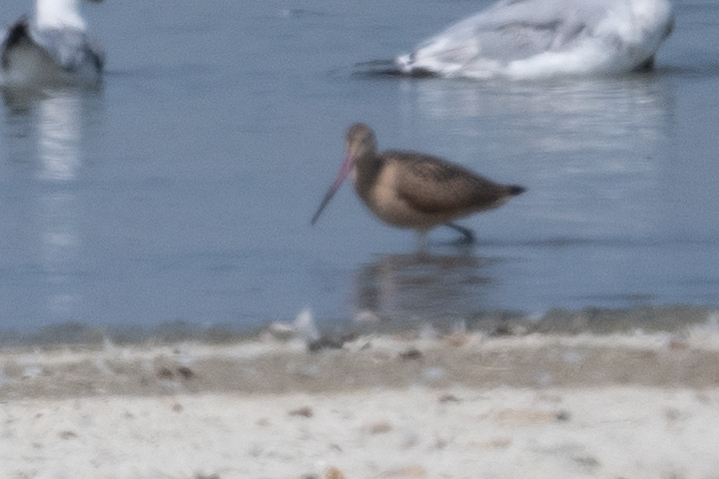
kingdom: Animalia
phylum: Chordata
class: Aves
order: Charadriiformes
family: Scolopacidae
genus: Limosa
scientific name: Limosa fedoa
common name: Marbled godwit
